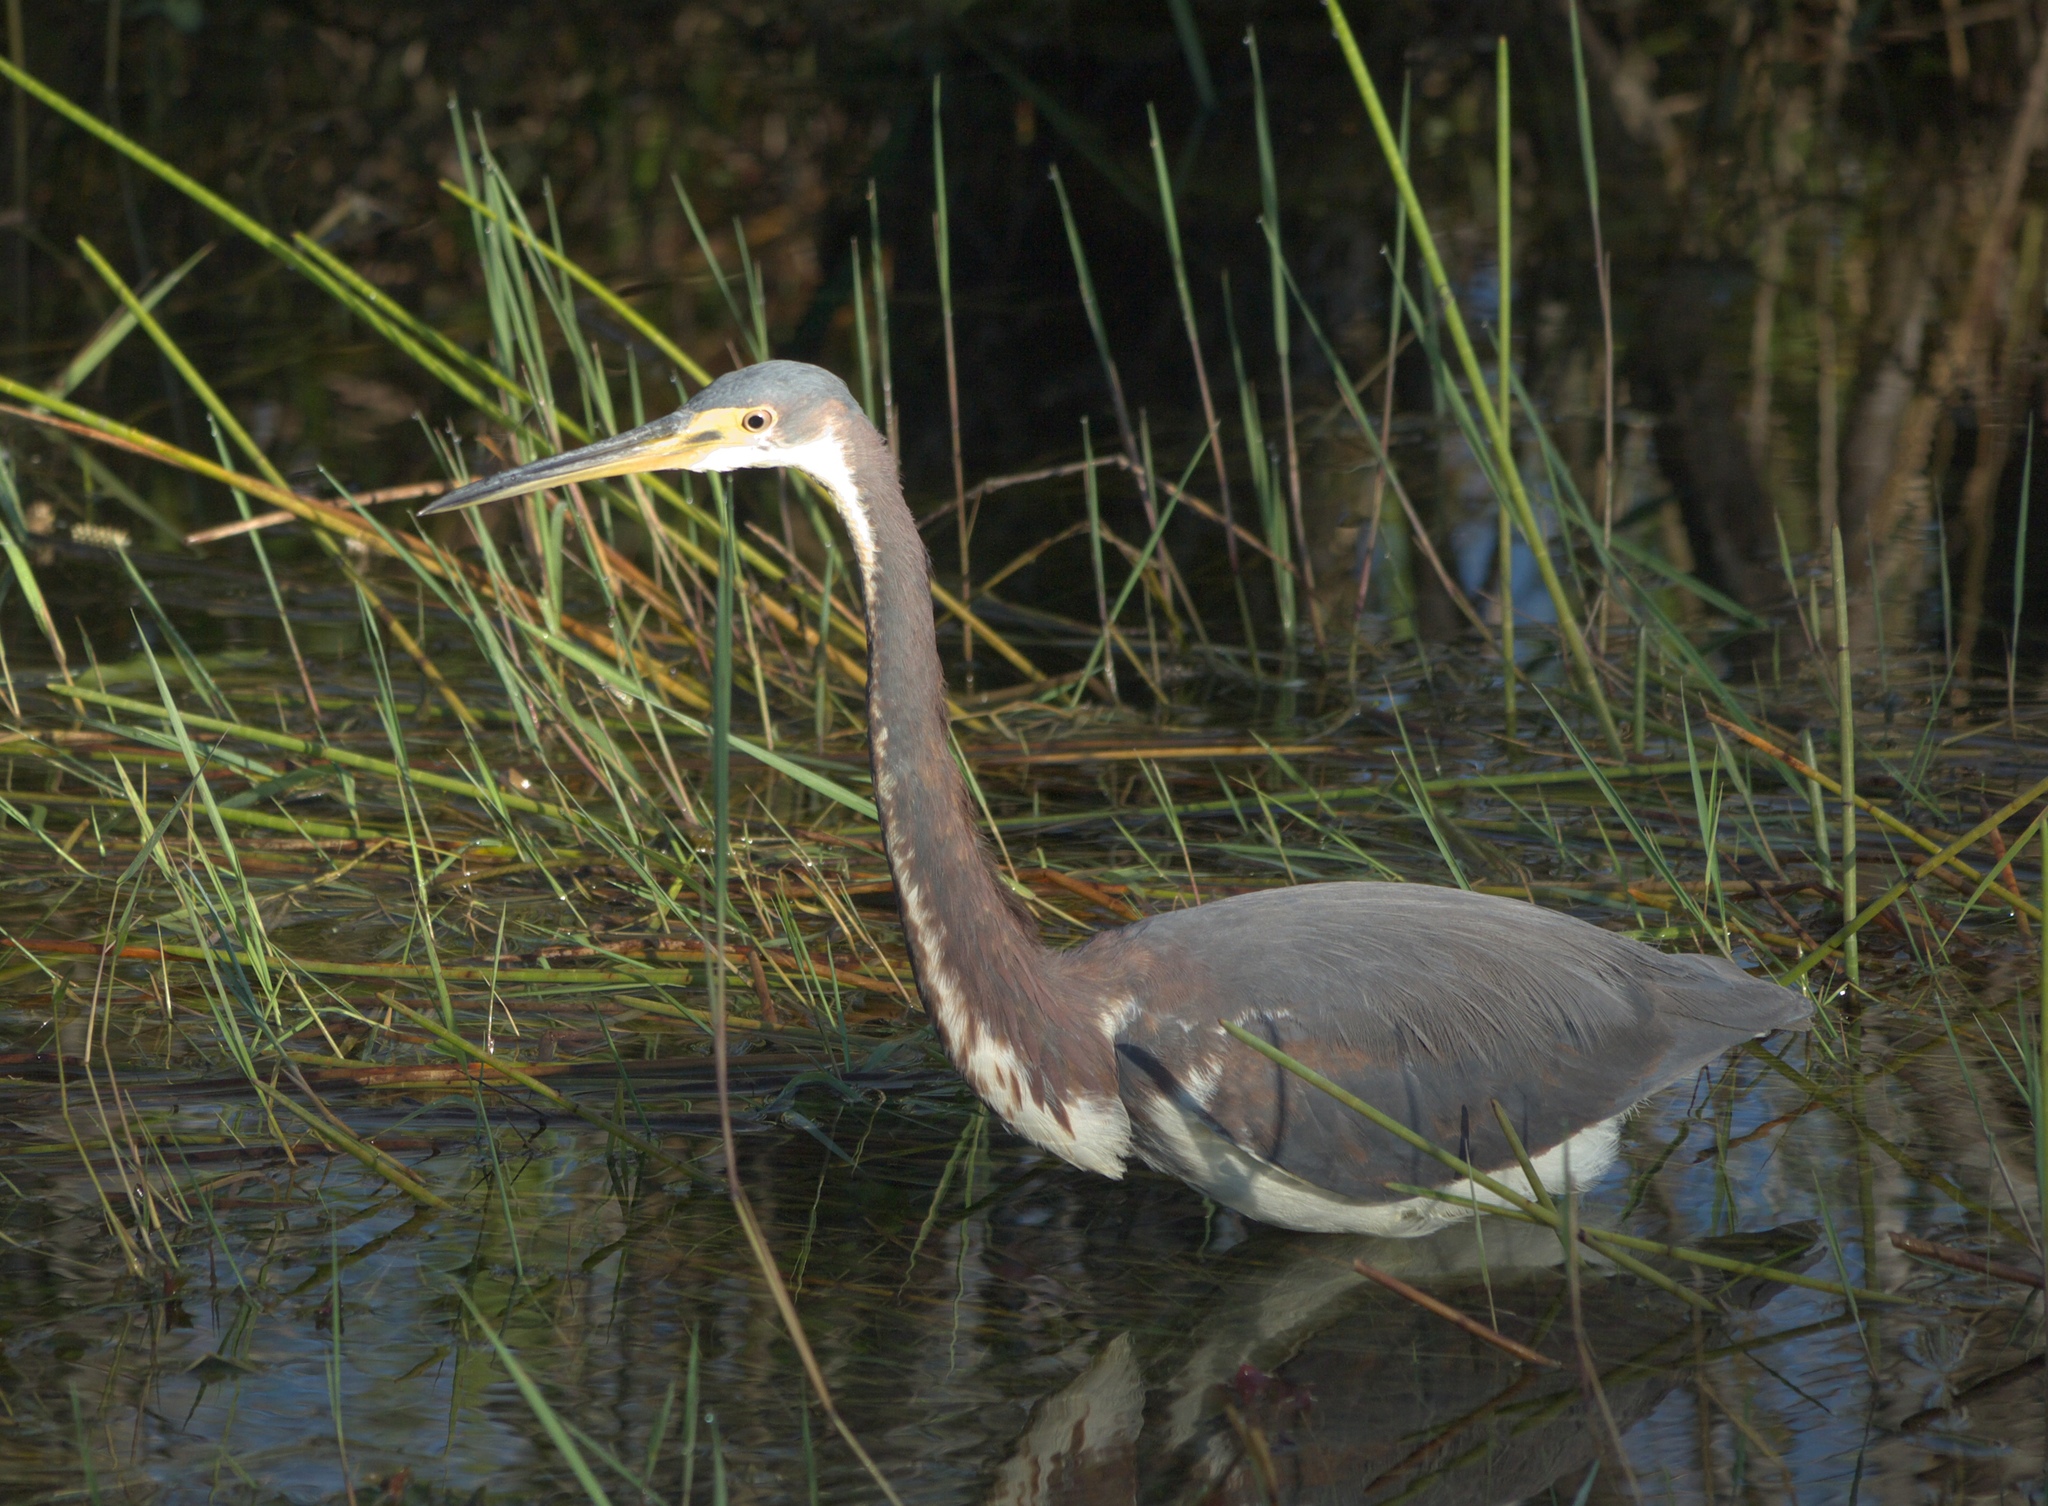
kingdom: Animalia
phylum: Chordata
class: Aves
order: Pelecaniformes
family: Ardeidae
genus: Egretta
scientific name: Egretta tricolor
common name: Tricolored heron
